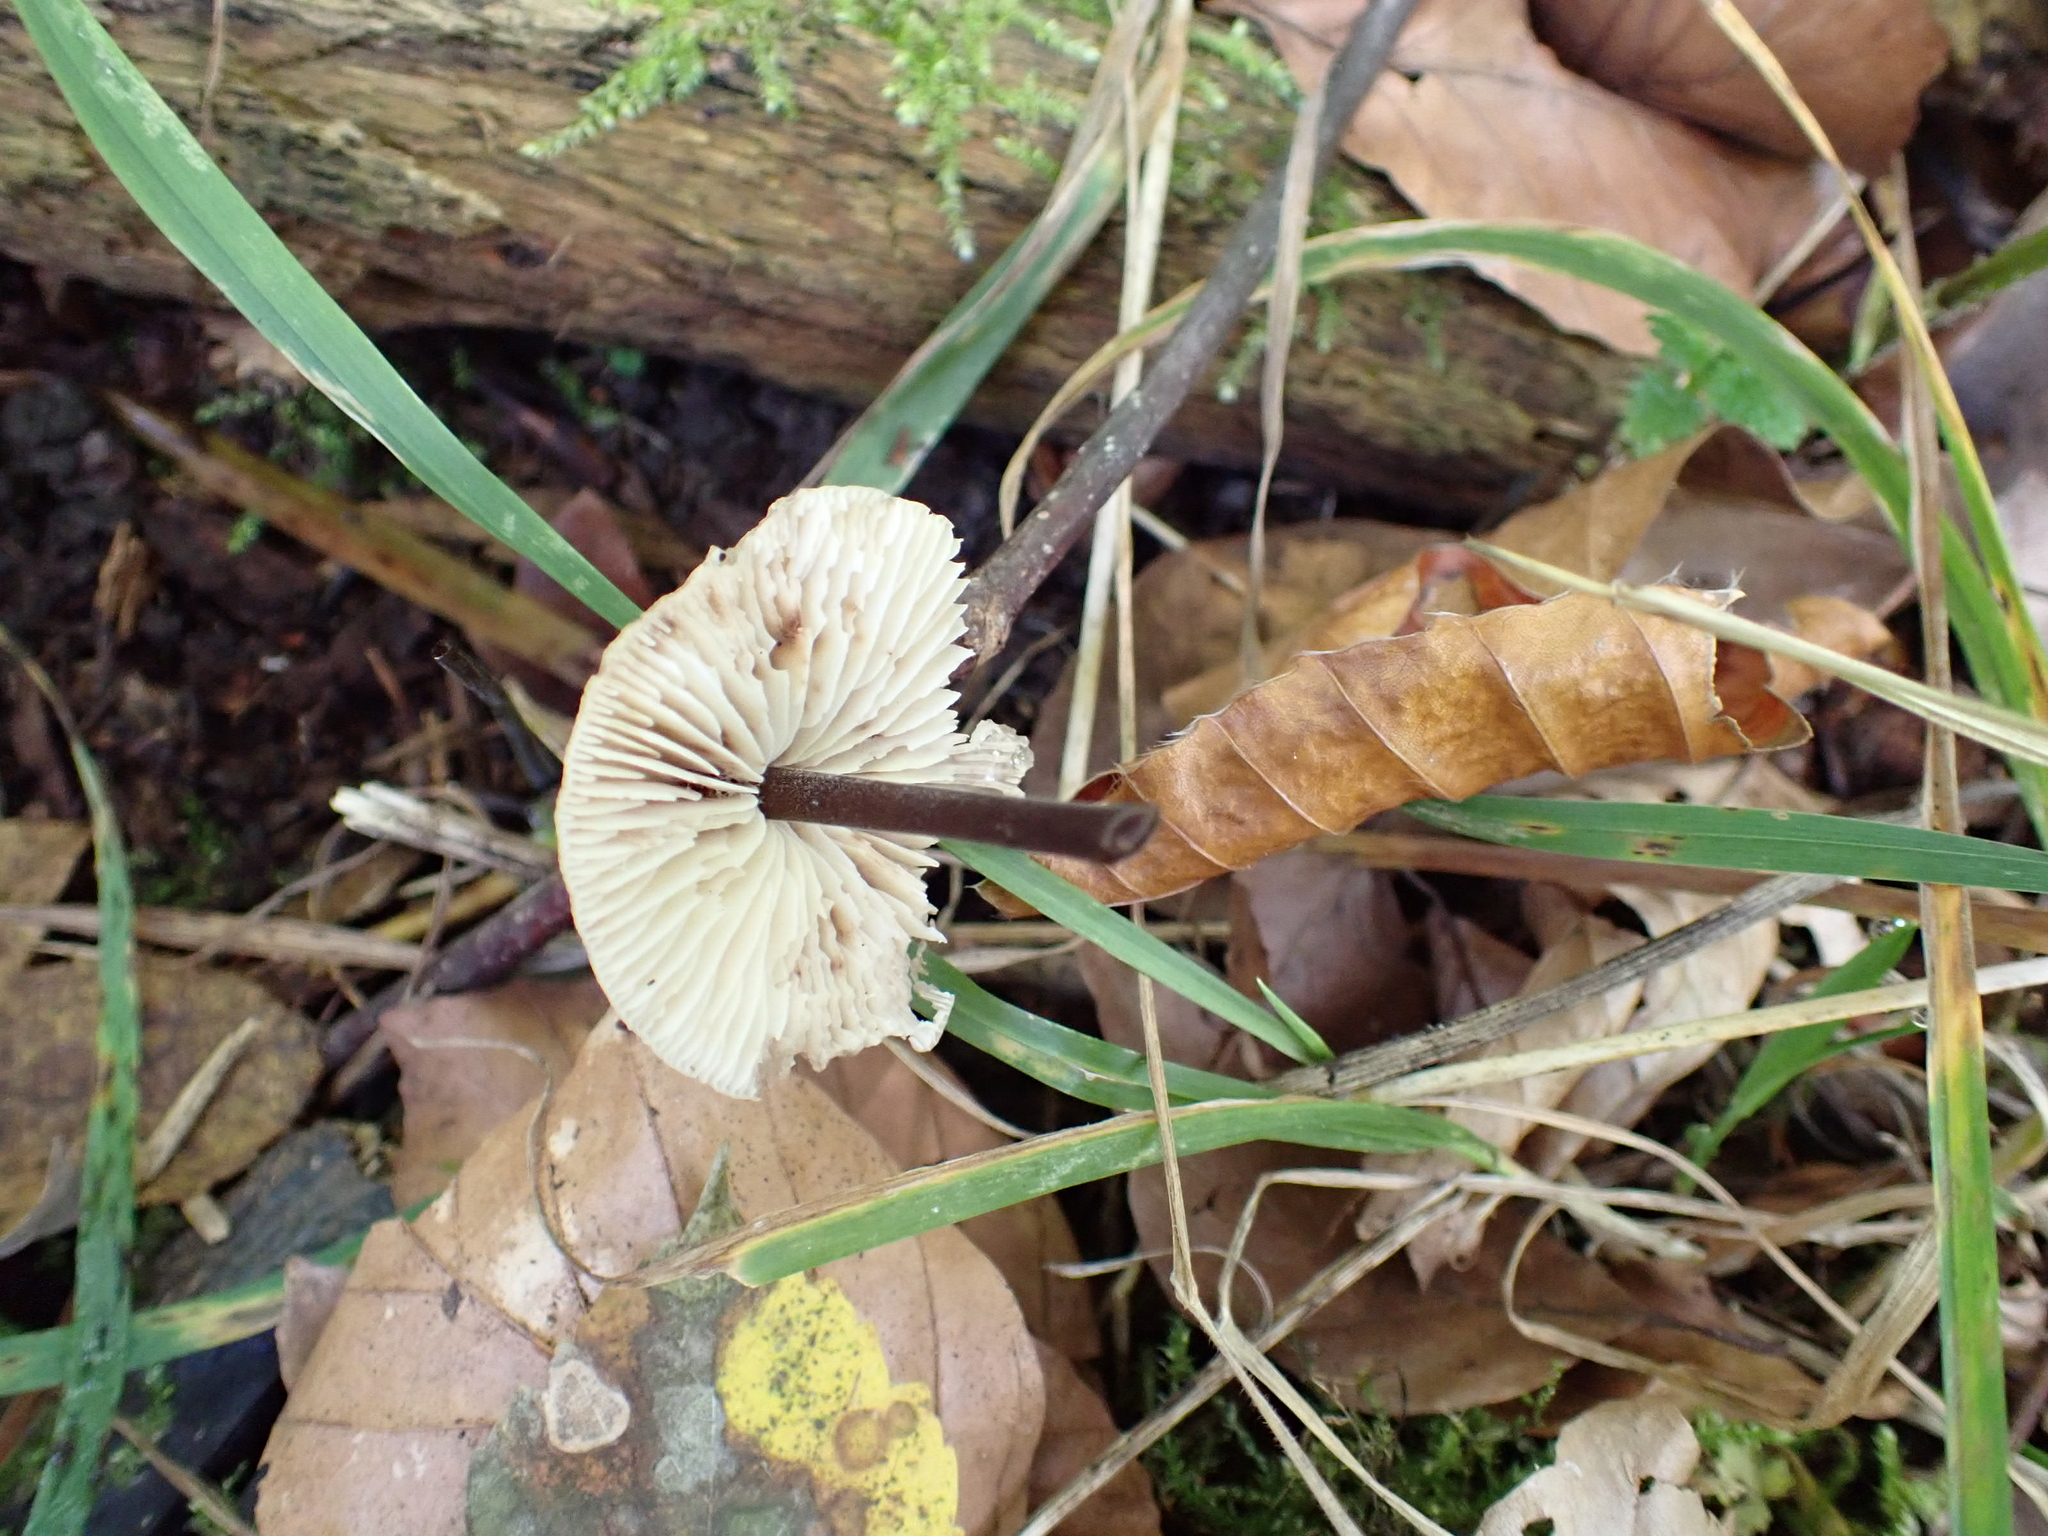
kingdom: Fungi
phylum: Basidiomycota
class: Agaricomycetes
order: Agaricales
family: Omphalotaceae
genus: Mycetinis
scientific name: Mycetinis alliaceus
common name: Garlic parachute
